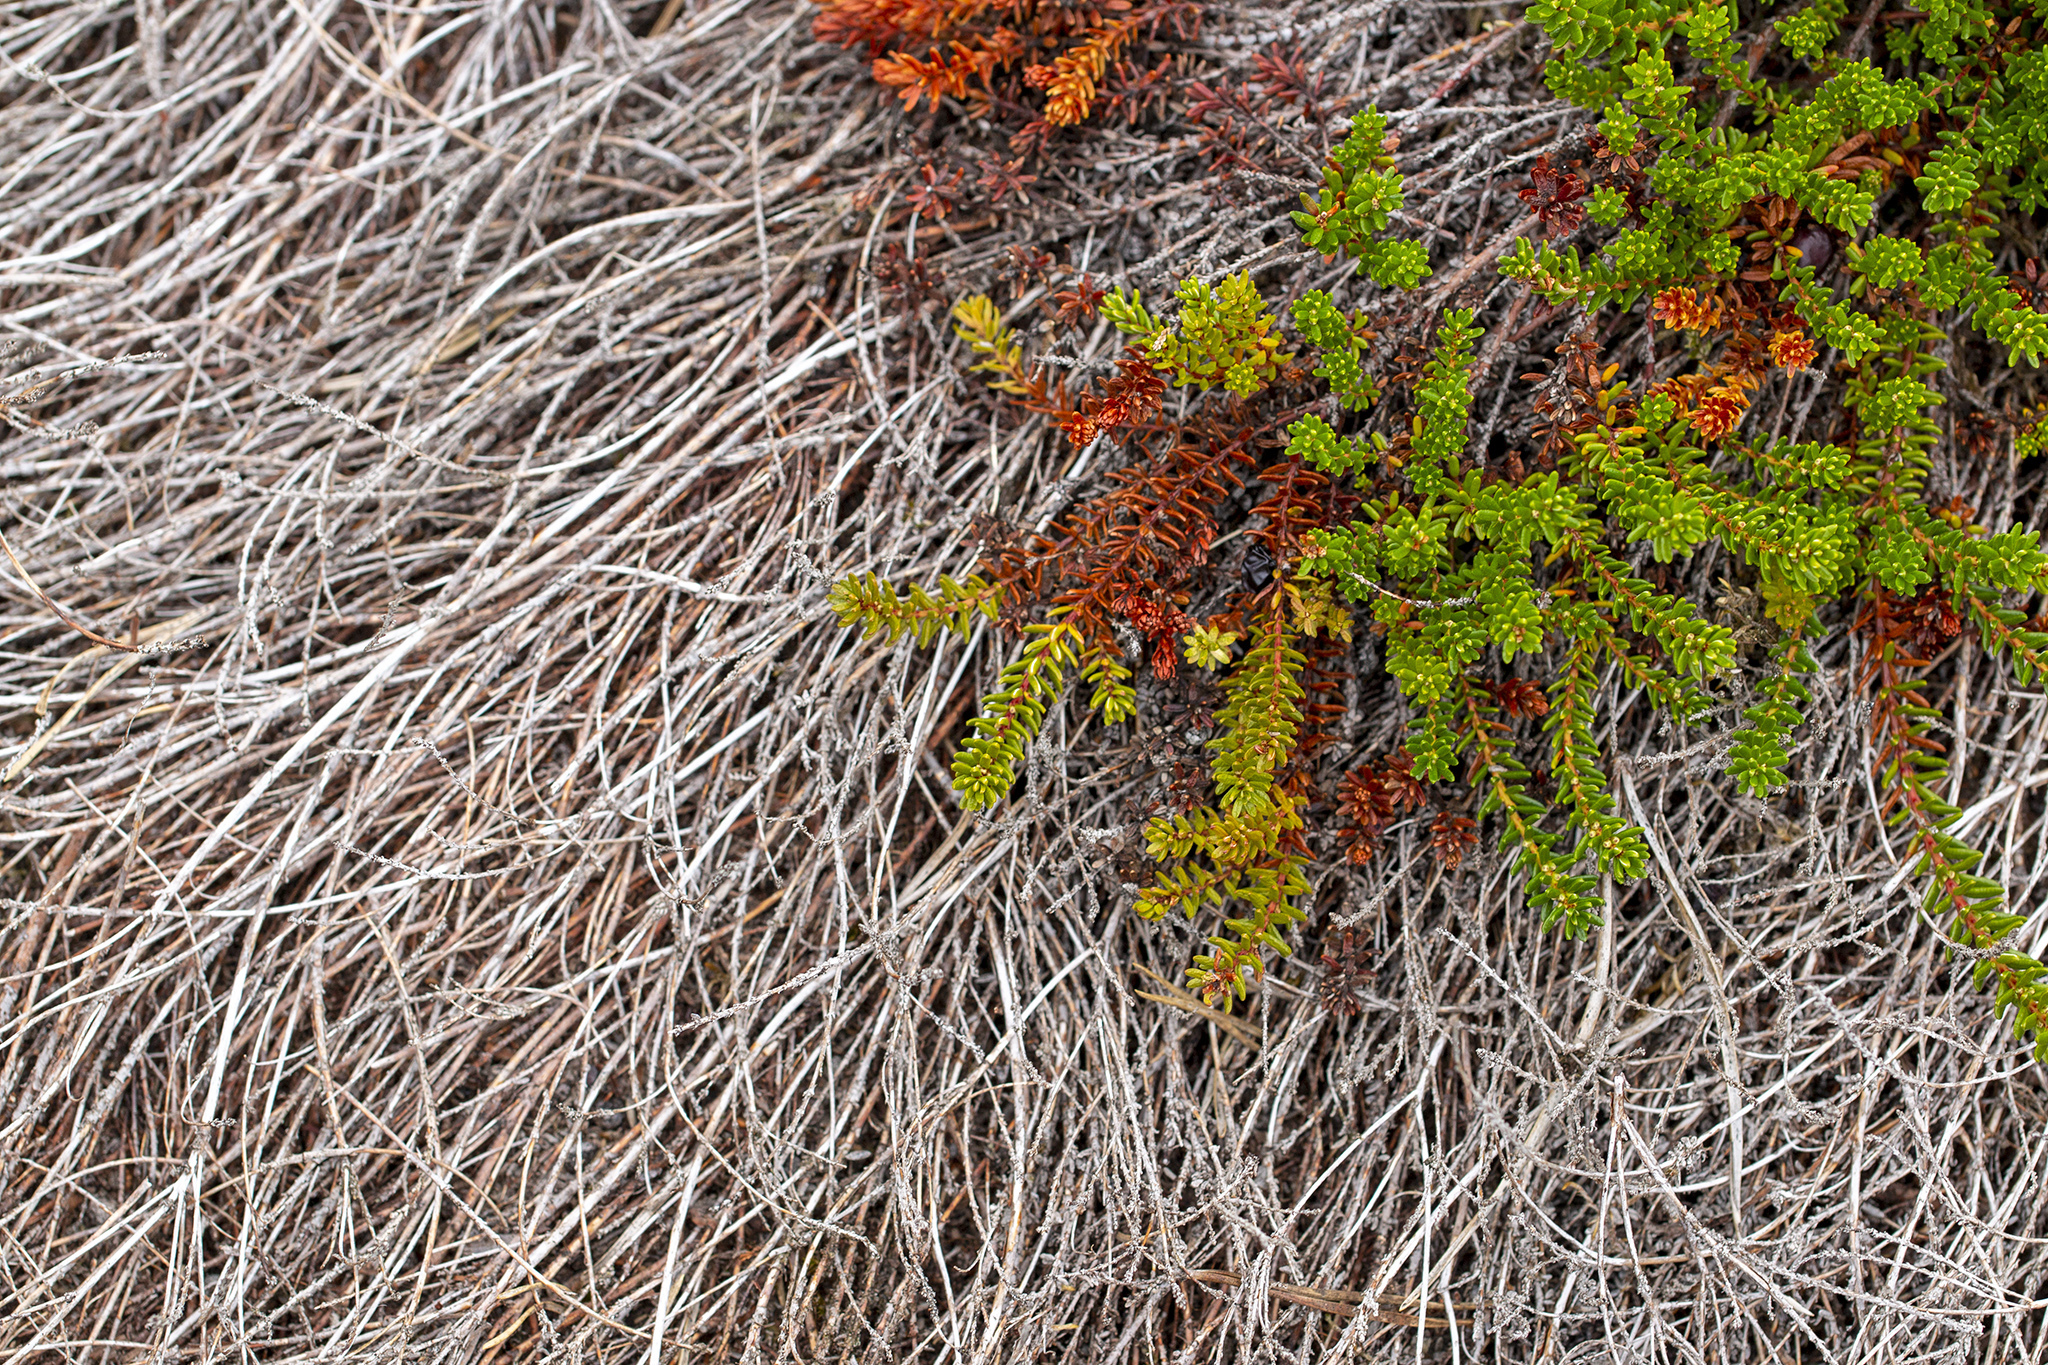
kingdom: Plantae
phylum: Tracheophyta
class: Magnoliopsida
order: Ericales
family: Ericaceae
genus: Empetrum
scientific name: Empetrum nigrum
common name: Black crowberry
